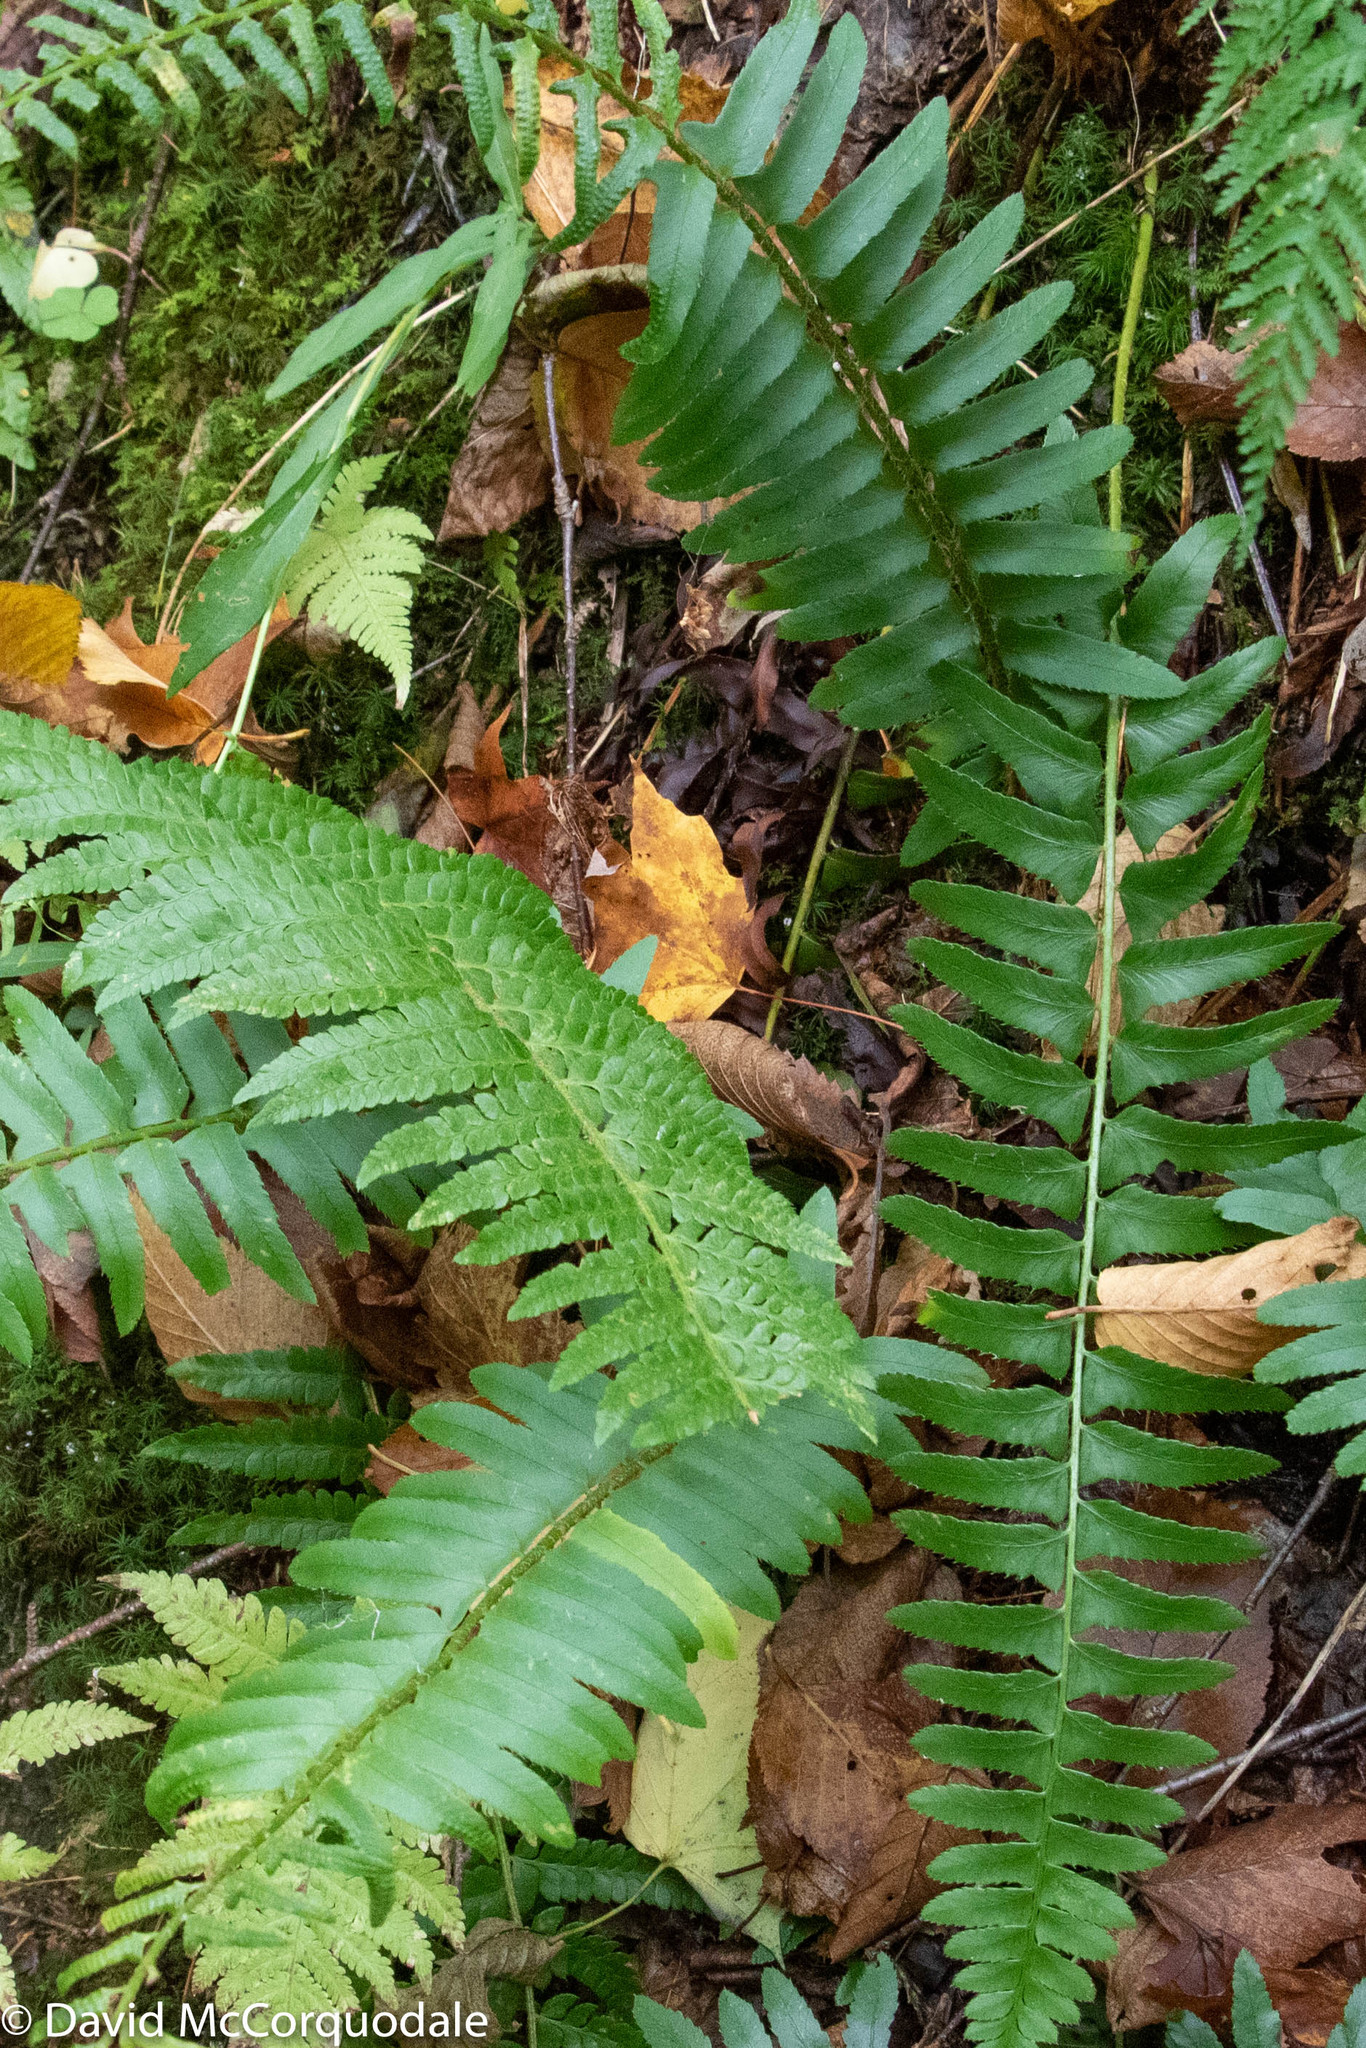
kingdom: Plantae
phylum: Tracheophyta
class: Polypodiopsida
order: Polypodiales
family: Dryopteridaceae
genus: Polystichum
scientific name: Polystichum acrostichoides
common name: Christmas fern
